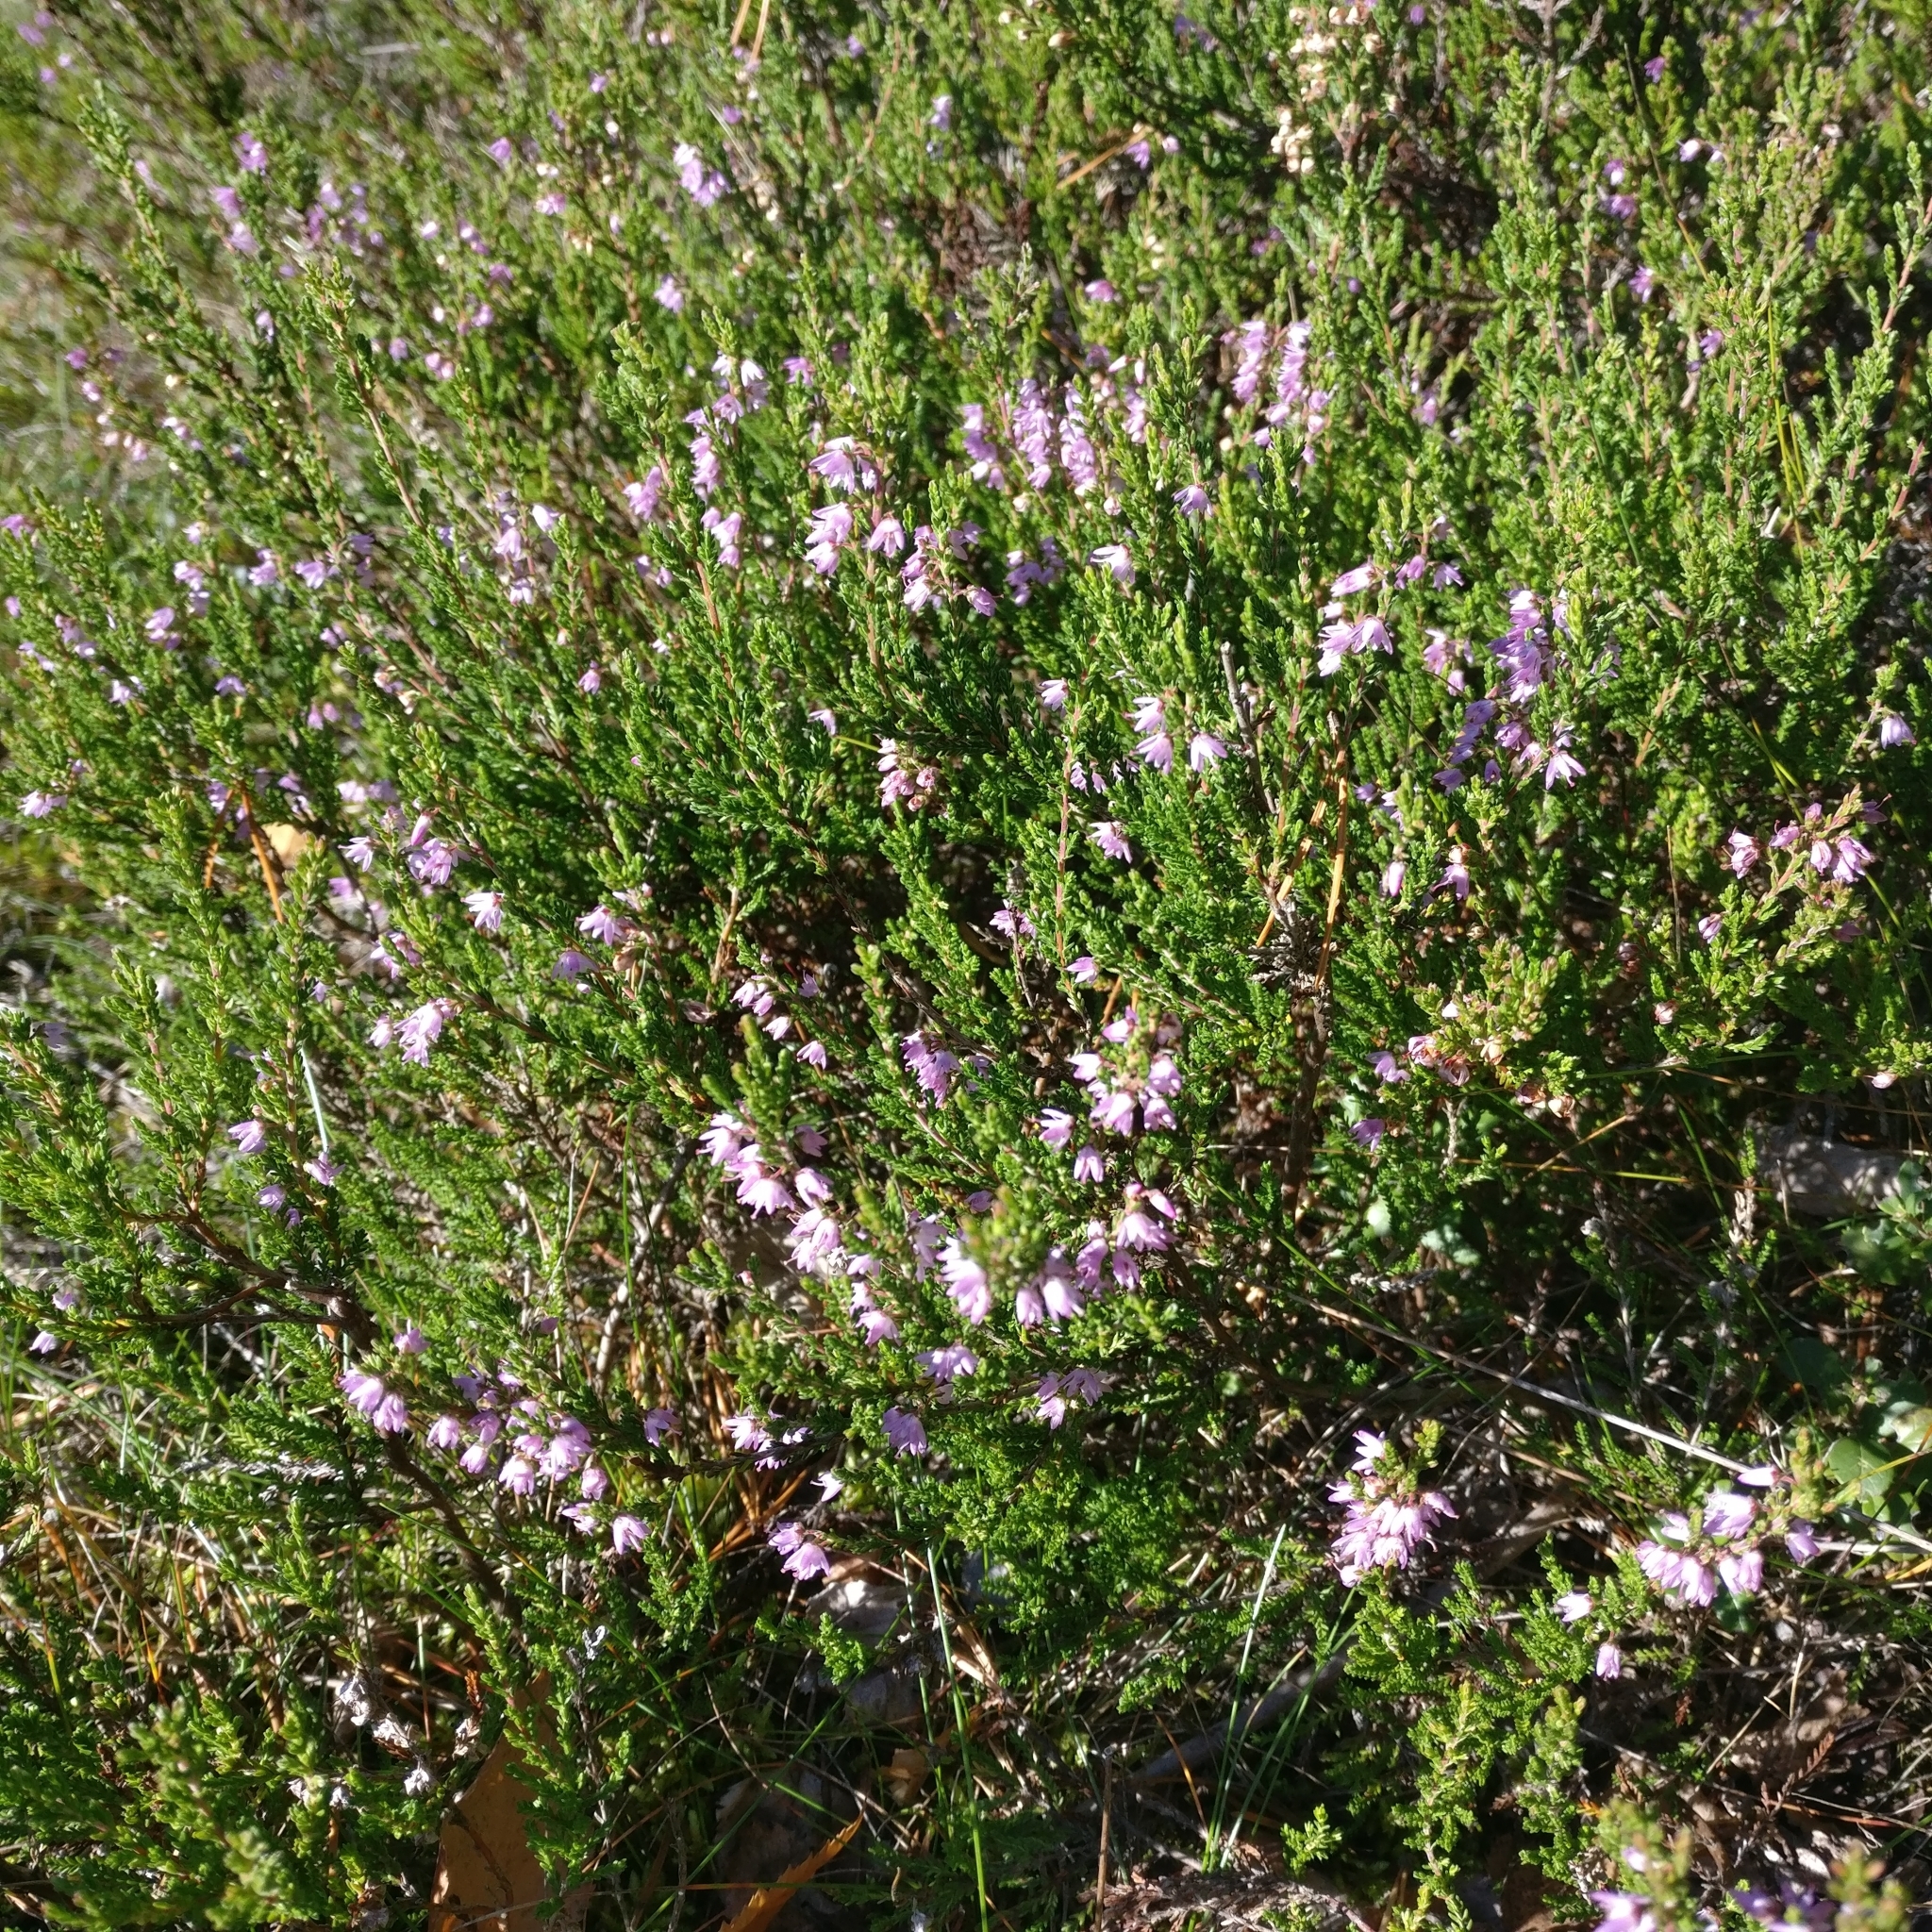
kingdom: Plantae
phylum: Tracheophyta
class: Magnoliopsida
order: Ericales
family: Ericaceae
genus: Calluna
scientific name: Calluna vulgaris
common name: Heather
